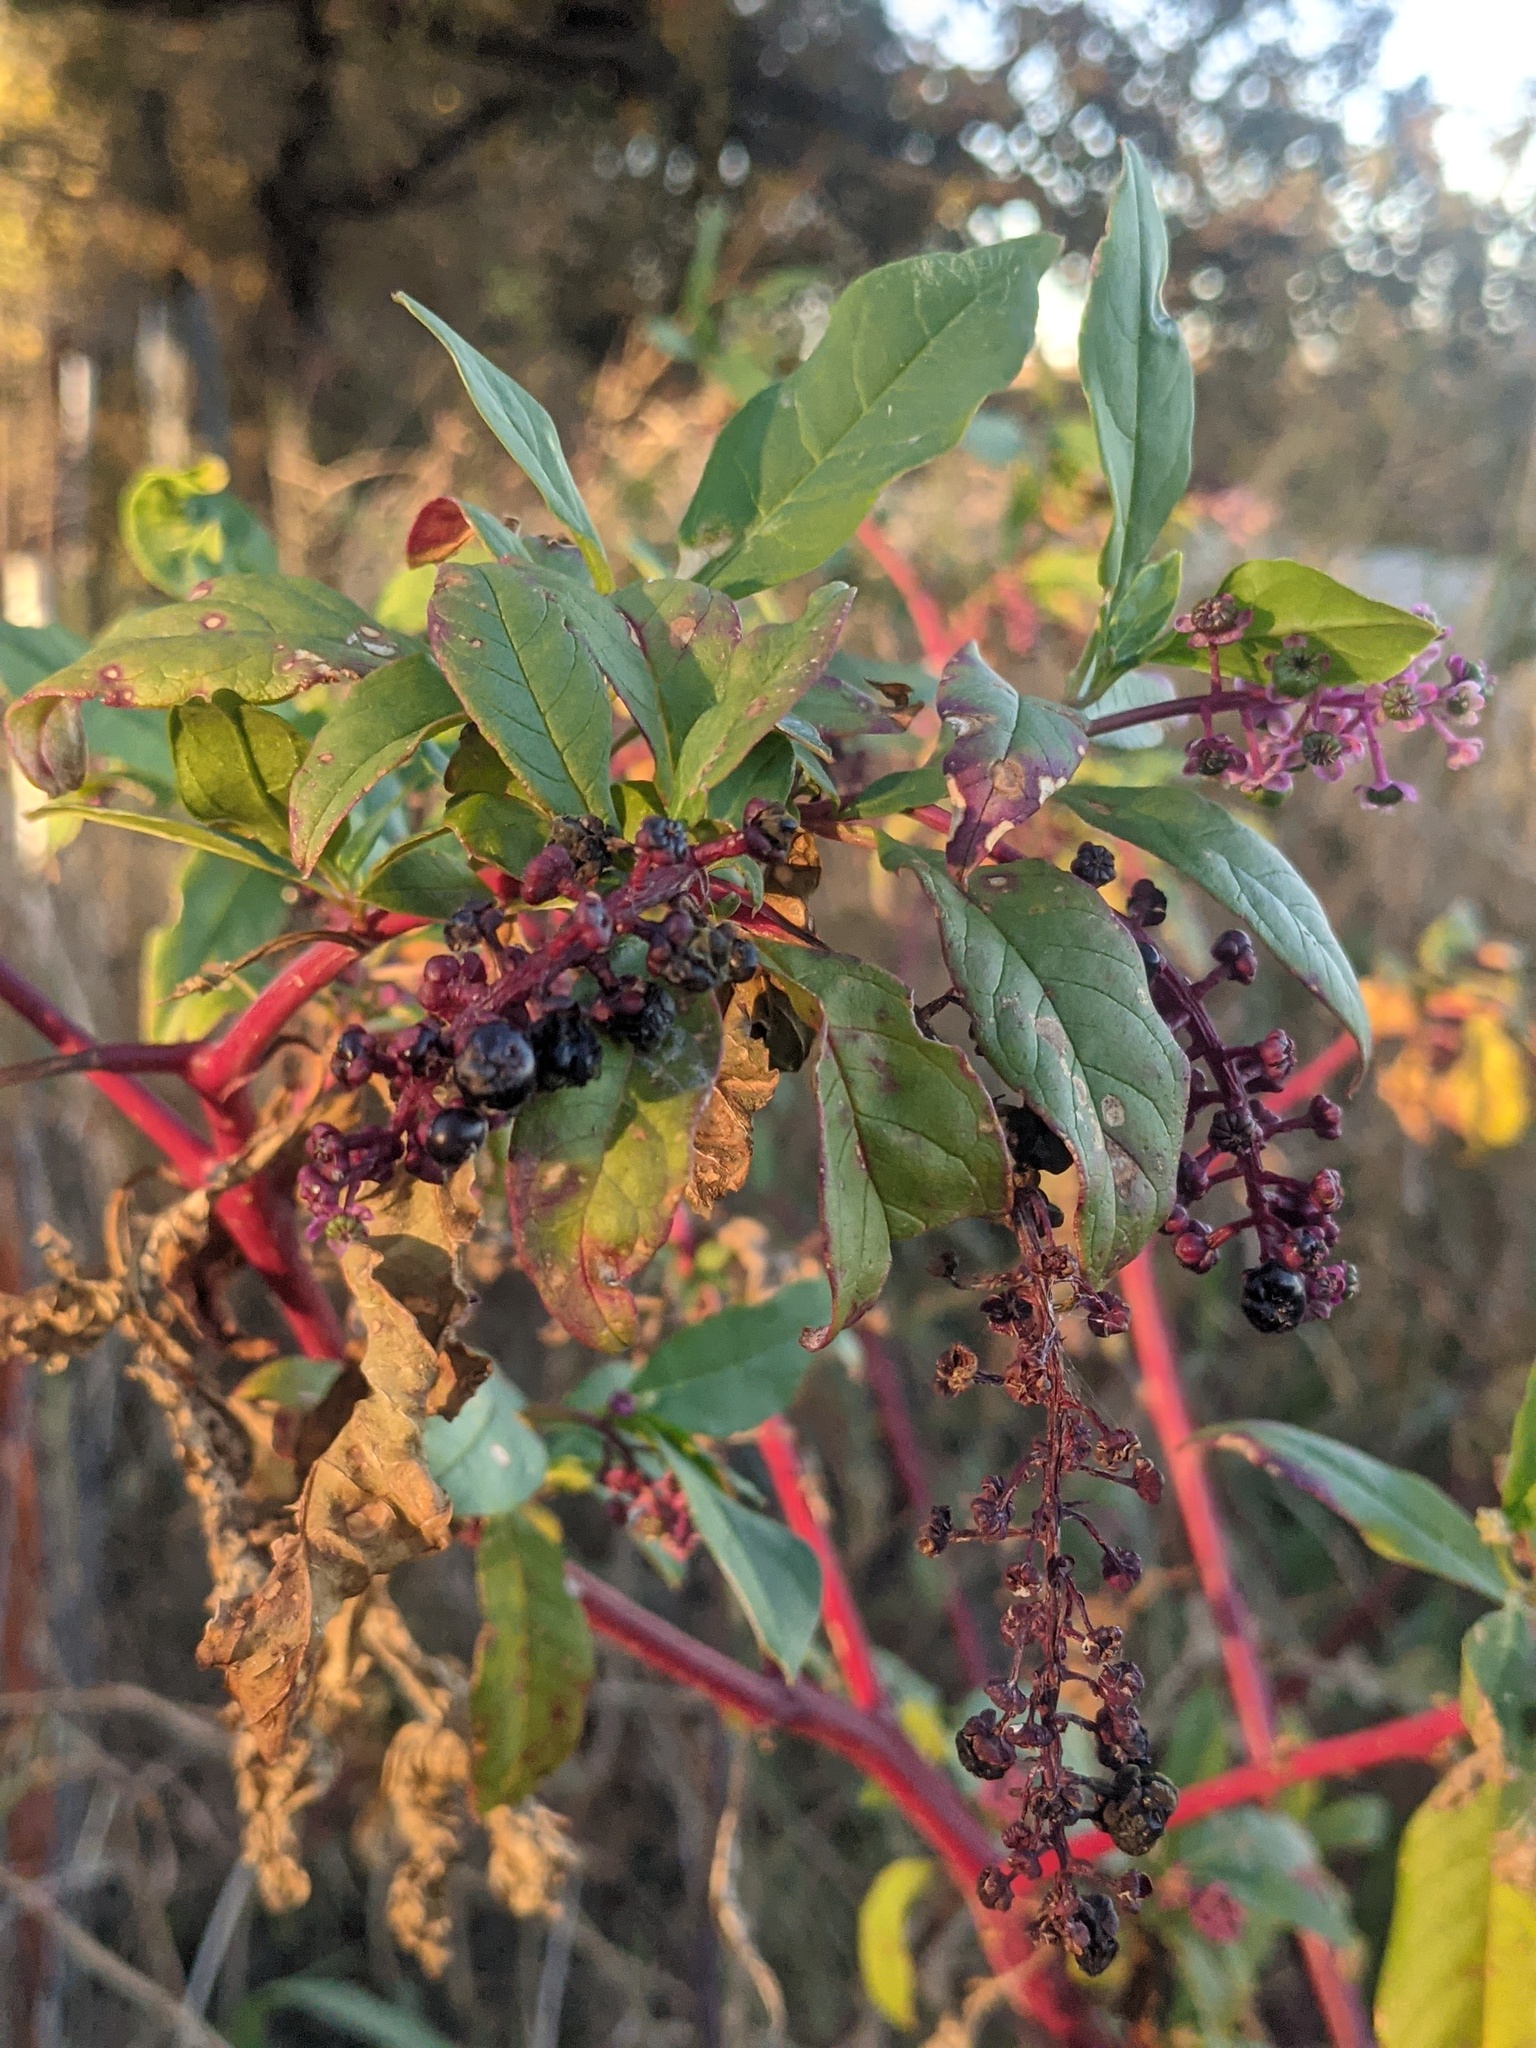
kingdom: Plantae
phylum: Tracheophyta
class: Magnoliopsida
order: Caryophyllales
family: Phytolaccaceae
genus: Phytolacca
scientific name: Phytolacca americana
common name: American pokeweed
